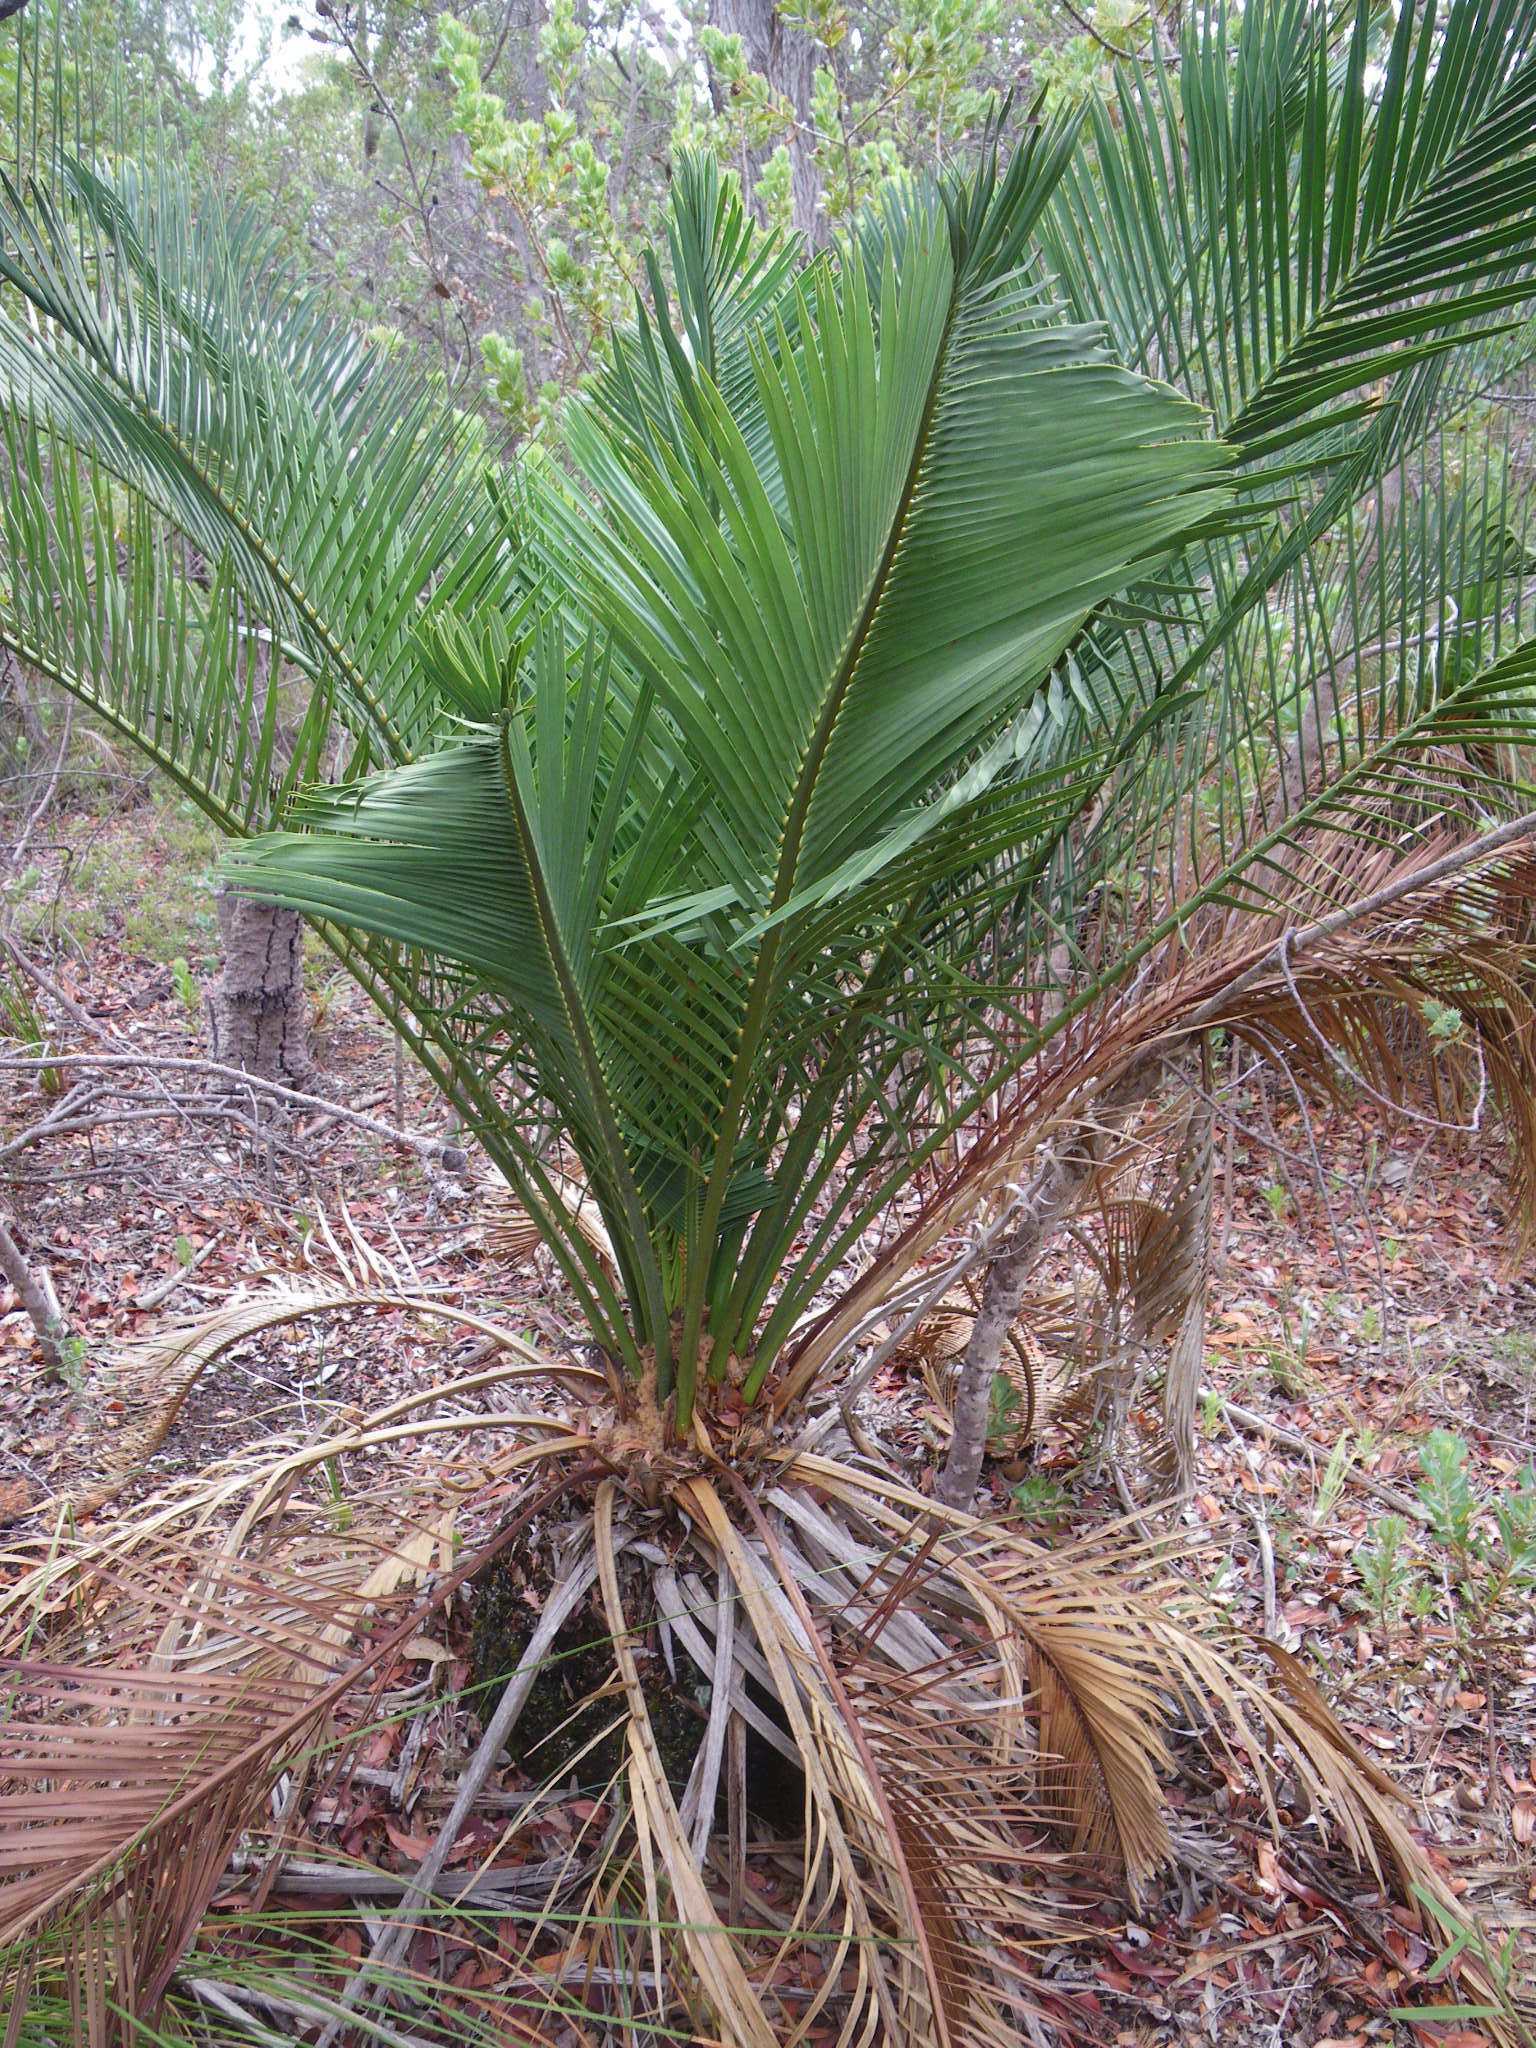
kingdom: Plantae
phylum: Tracheophyta
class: Cycadopsida
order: Cycadales
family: Zamiaceae
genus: Macrozamia
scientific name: Macrozamia riedlei
